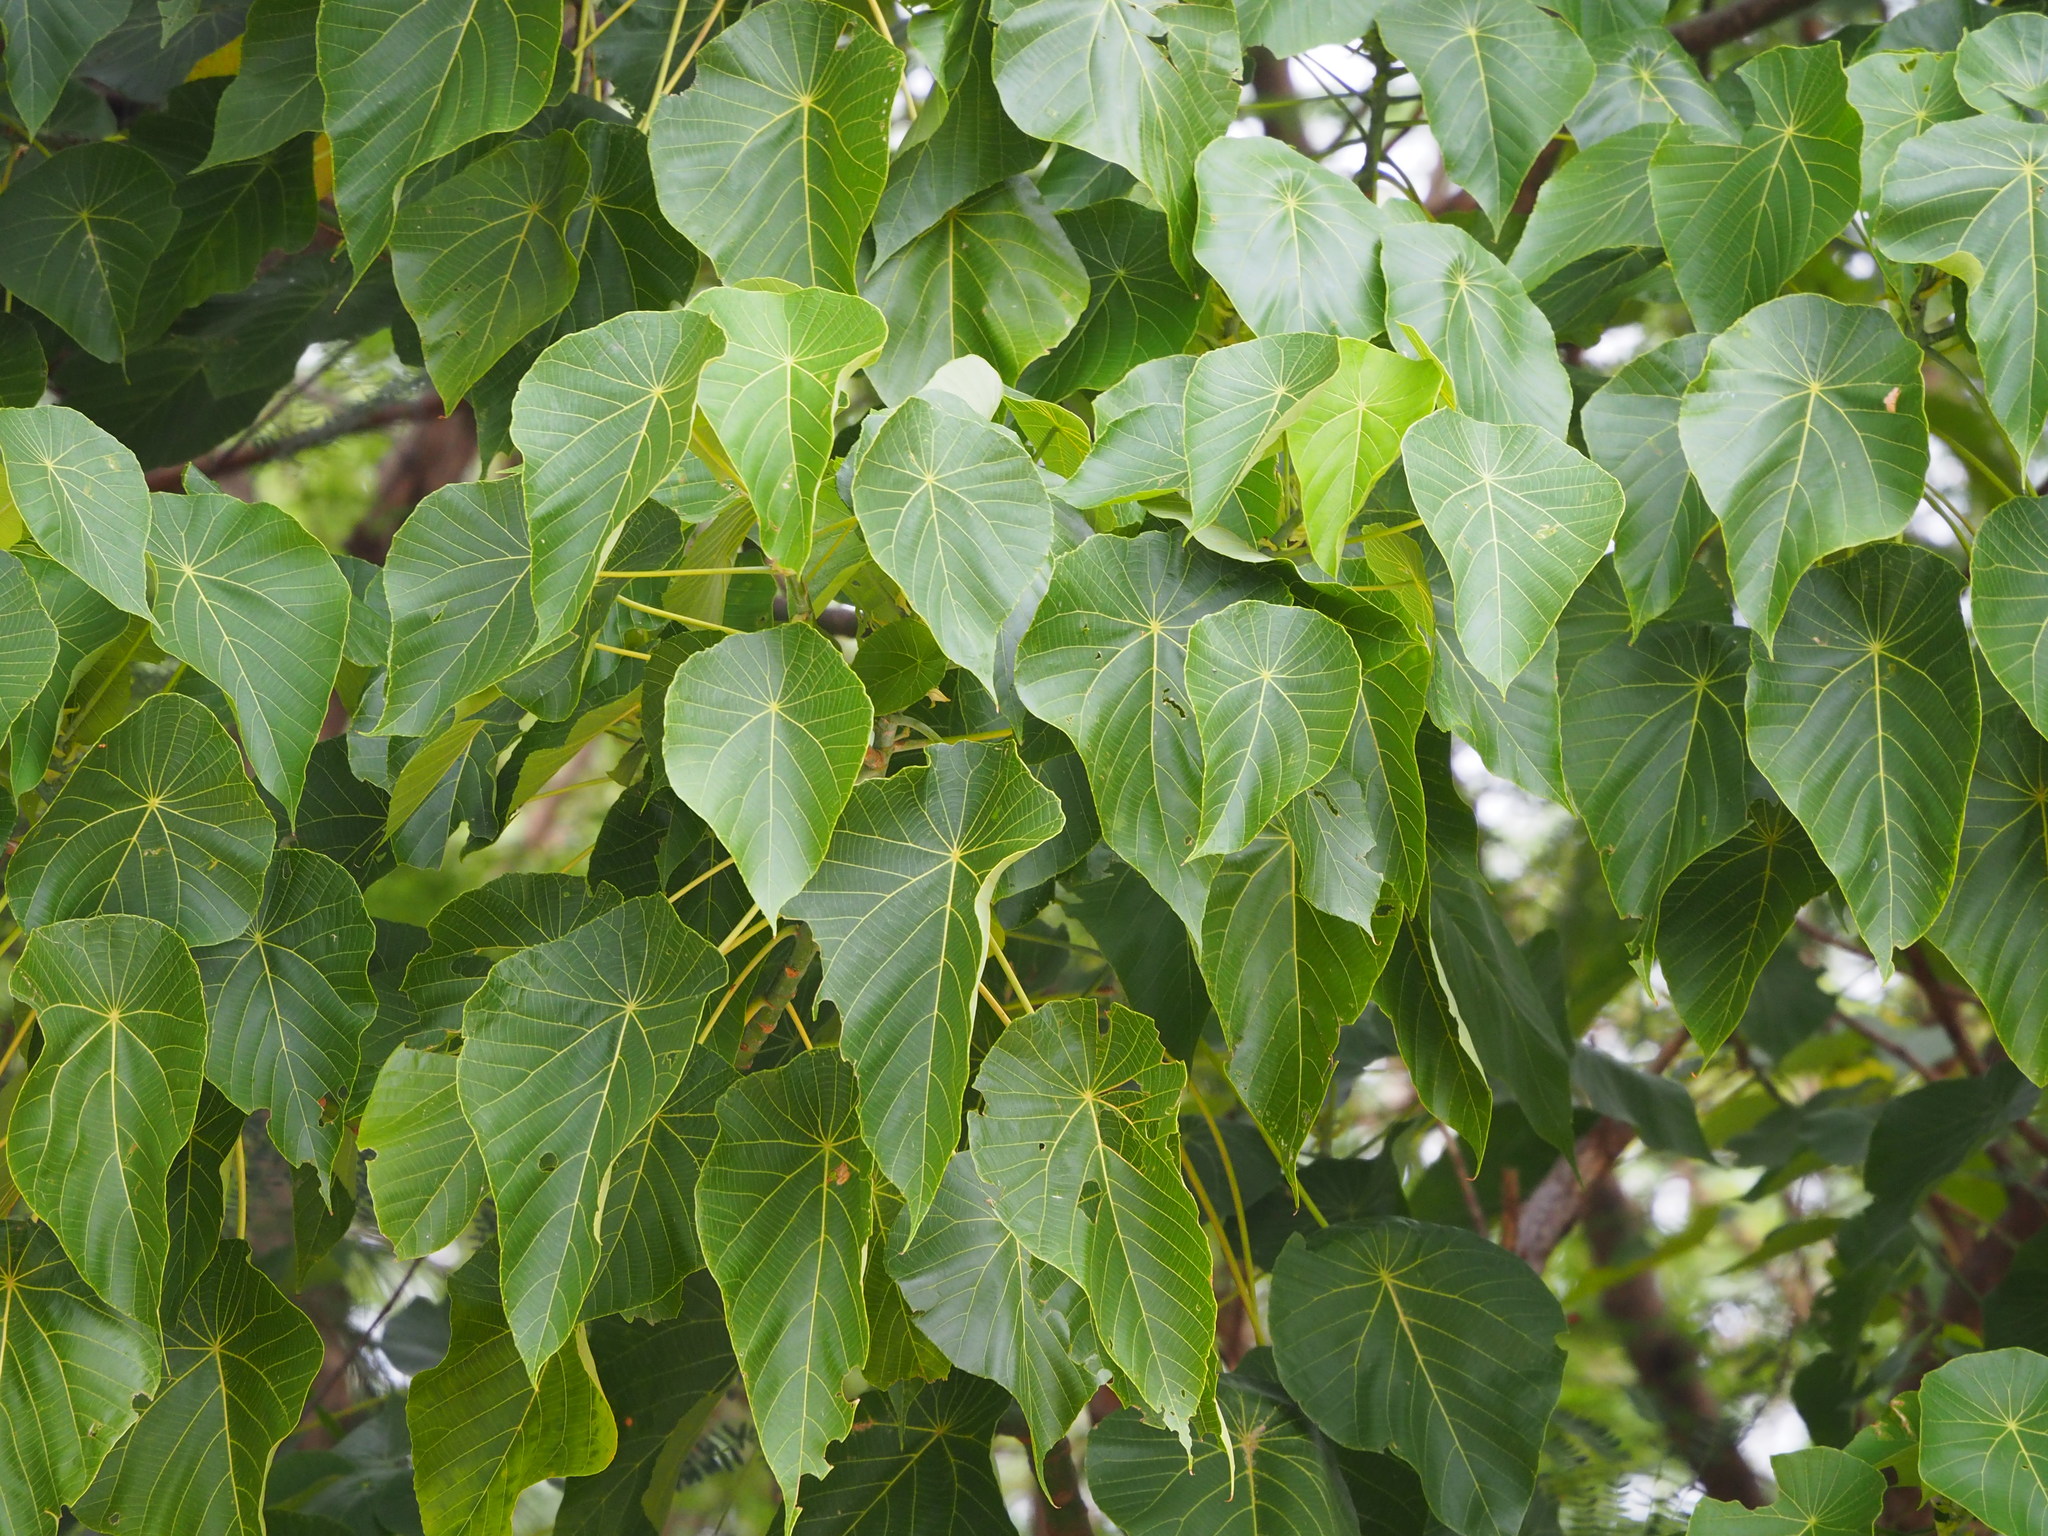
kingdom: Plantae
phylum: Tracheophyta
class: Magnoliopsida
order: Malpighiales
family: Euphorbiaceae
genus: Macaranga
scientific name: Macaranga tanarius
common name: Parasol leaf tree
